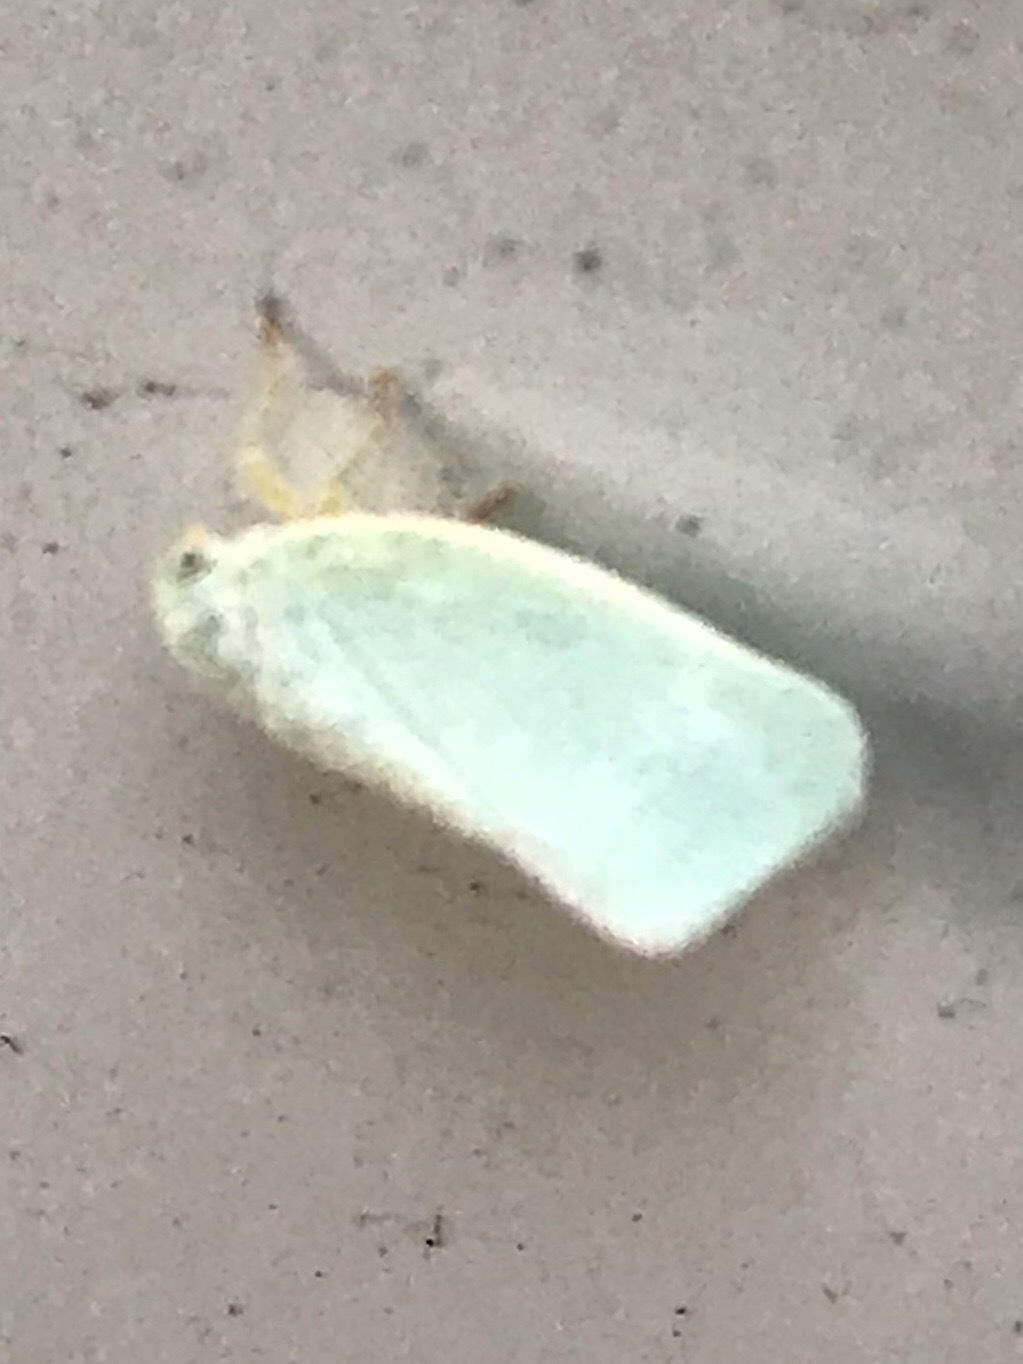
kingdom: Animalia
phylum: Arthropoda
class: Insecta
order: Hemiptera
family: Flatidae
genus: Flatormenis
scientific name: Flatormenis proxima
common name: Northern flatid planthopper
